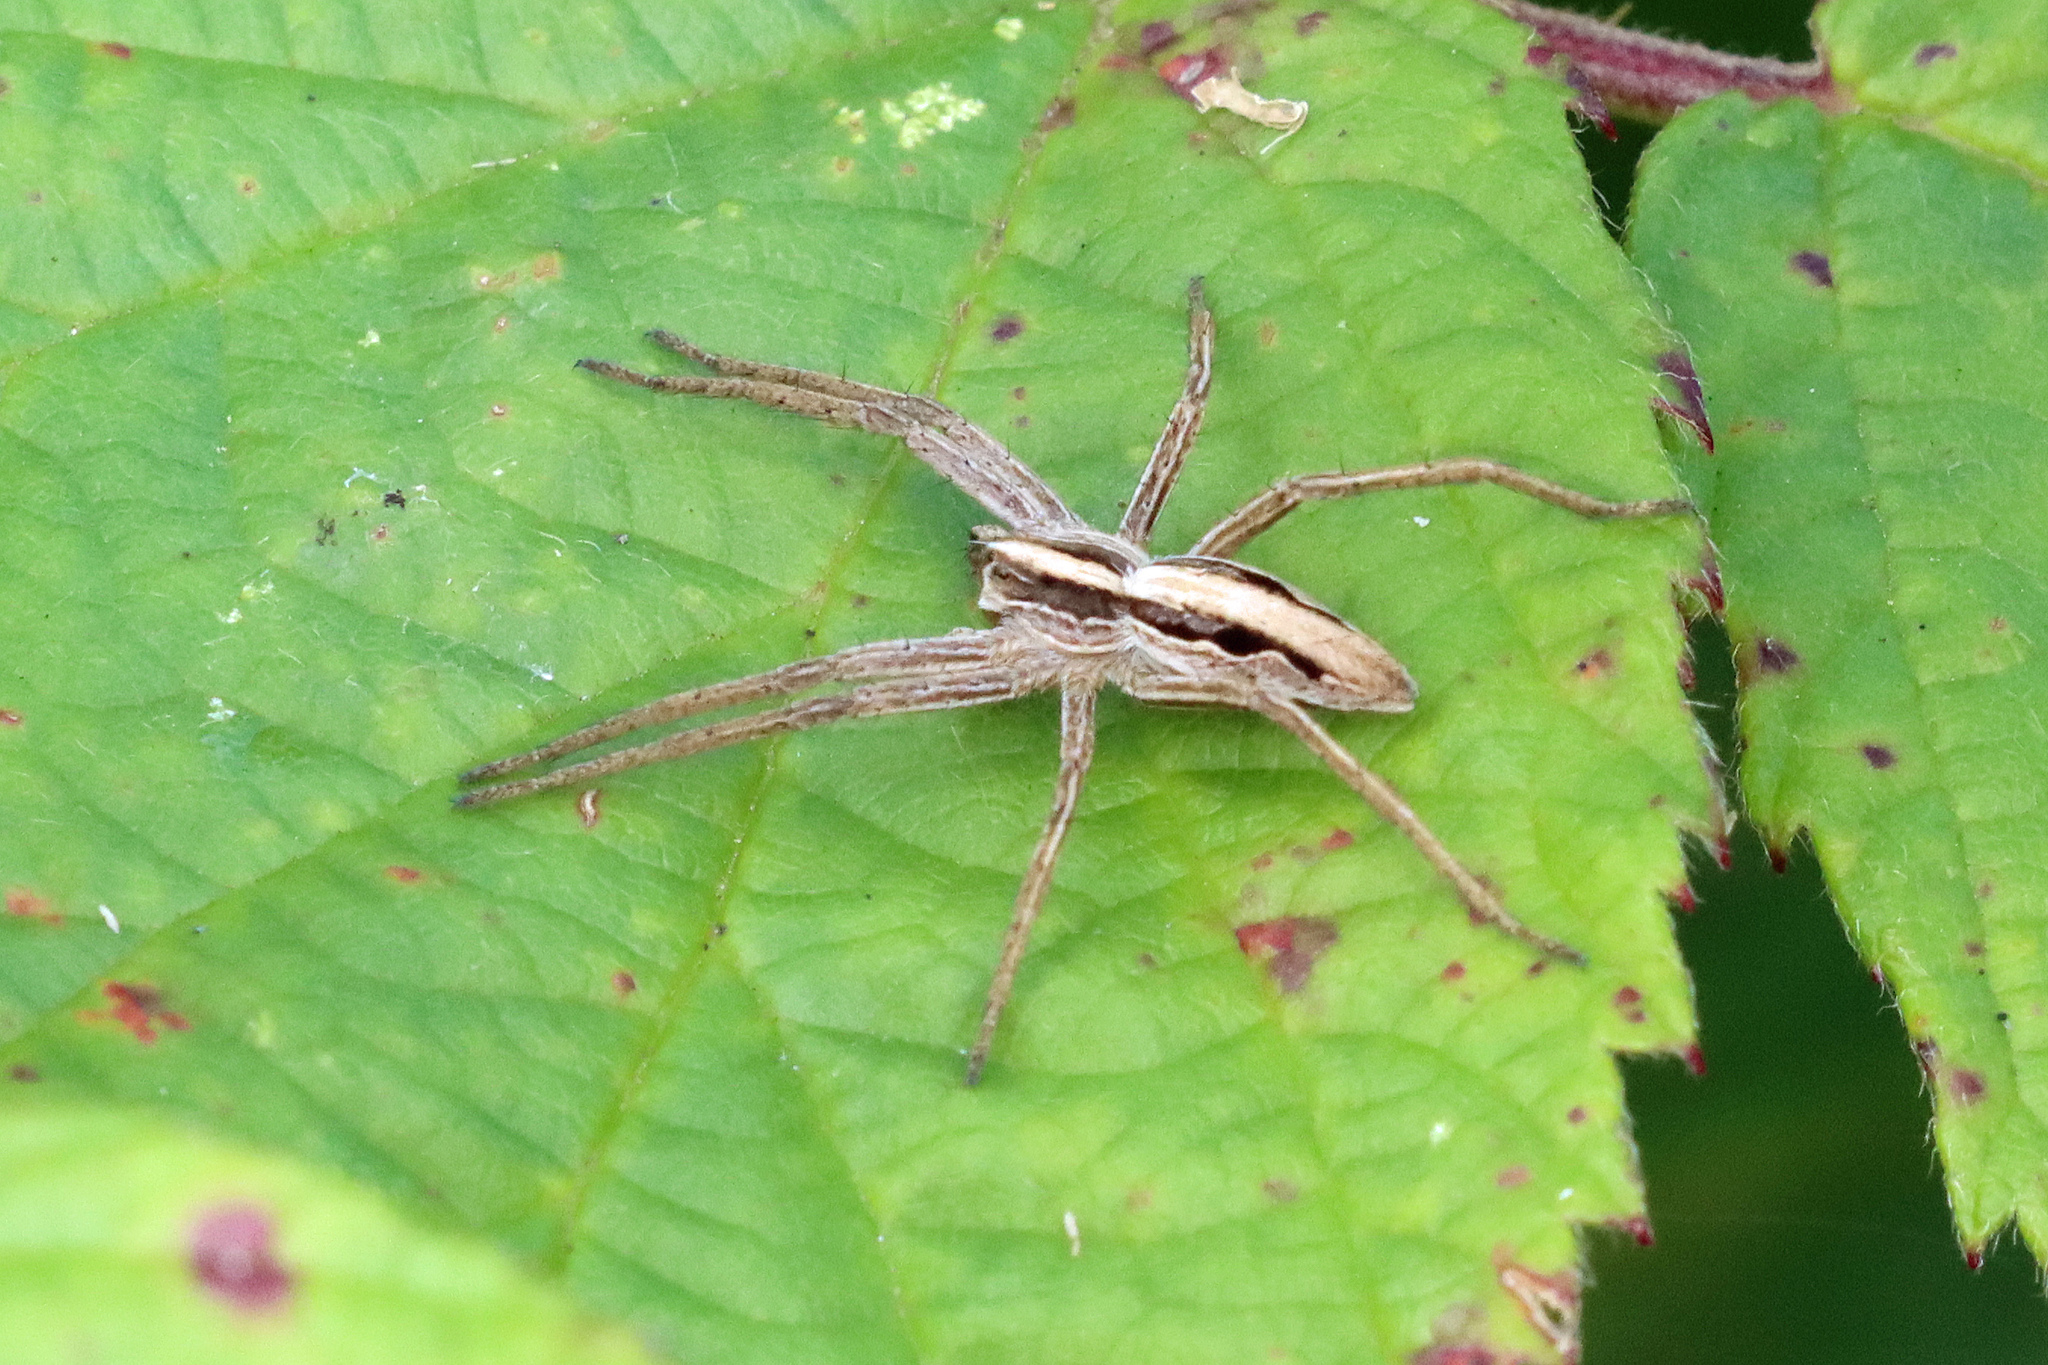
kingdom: Animalia
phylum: Arthropoda
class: Arachnida
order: Araneae
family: Pisauridae
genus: Pisaura
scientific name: Pisaura mirabilis
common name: Tent spider
